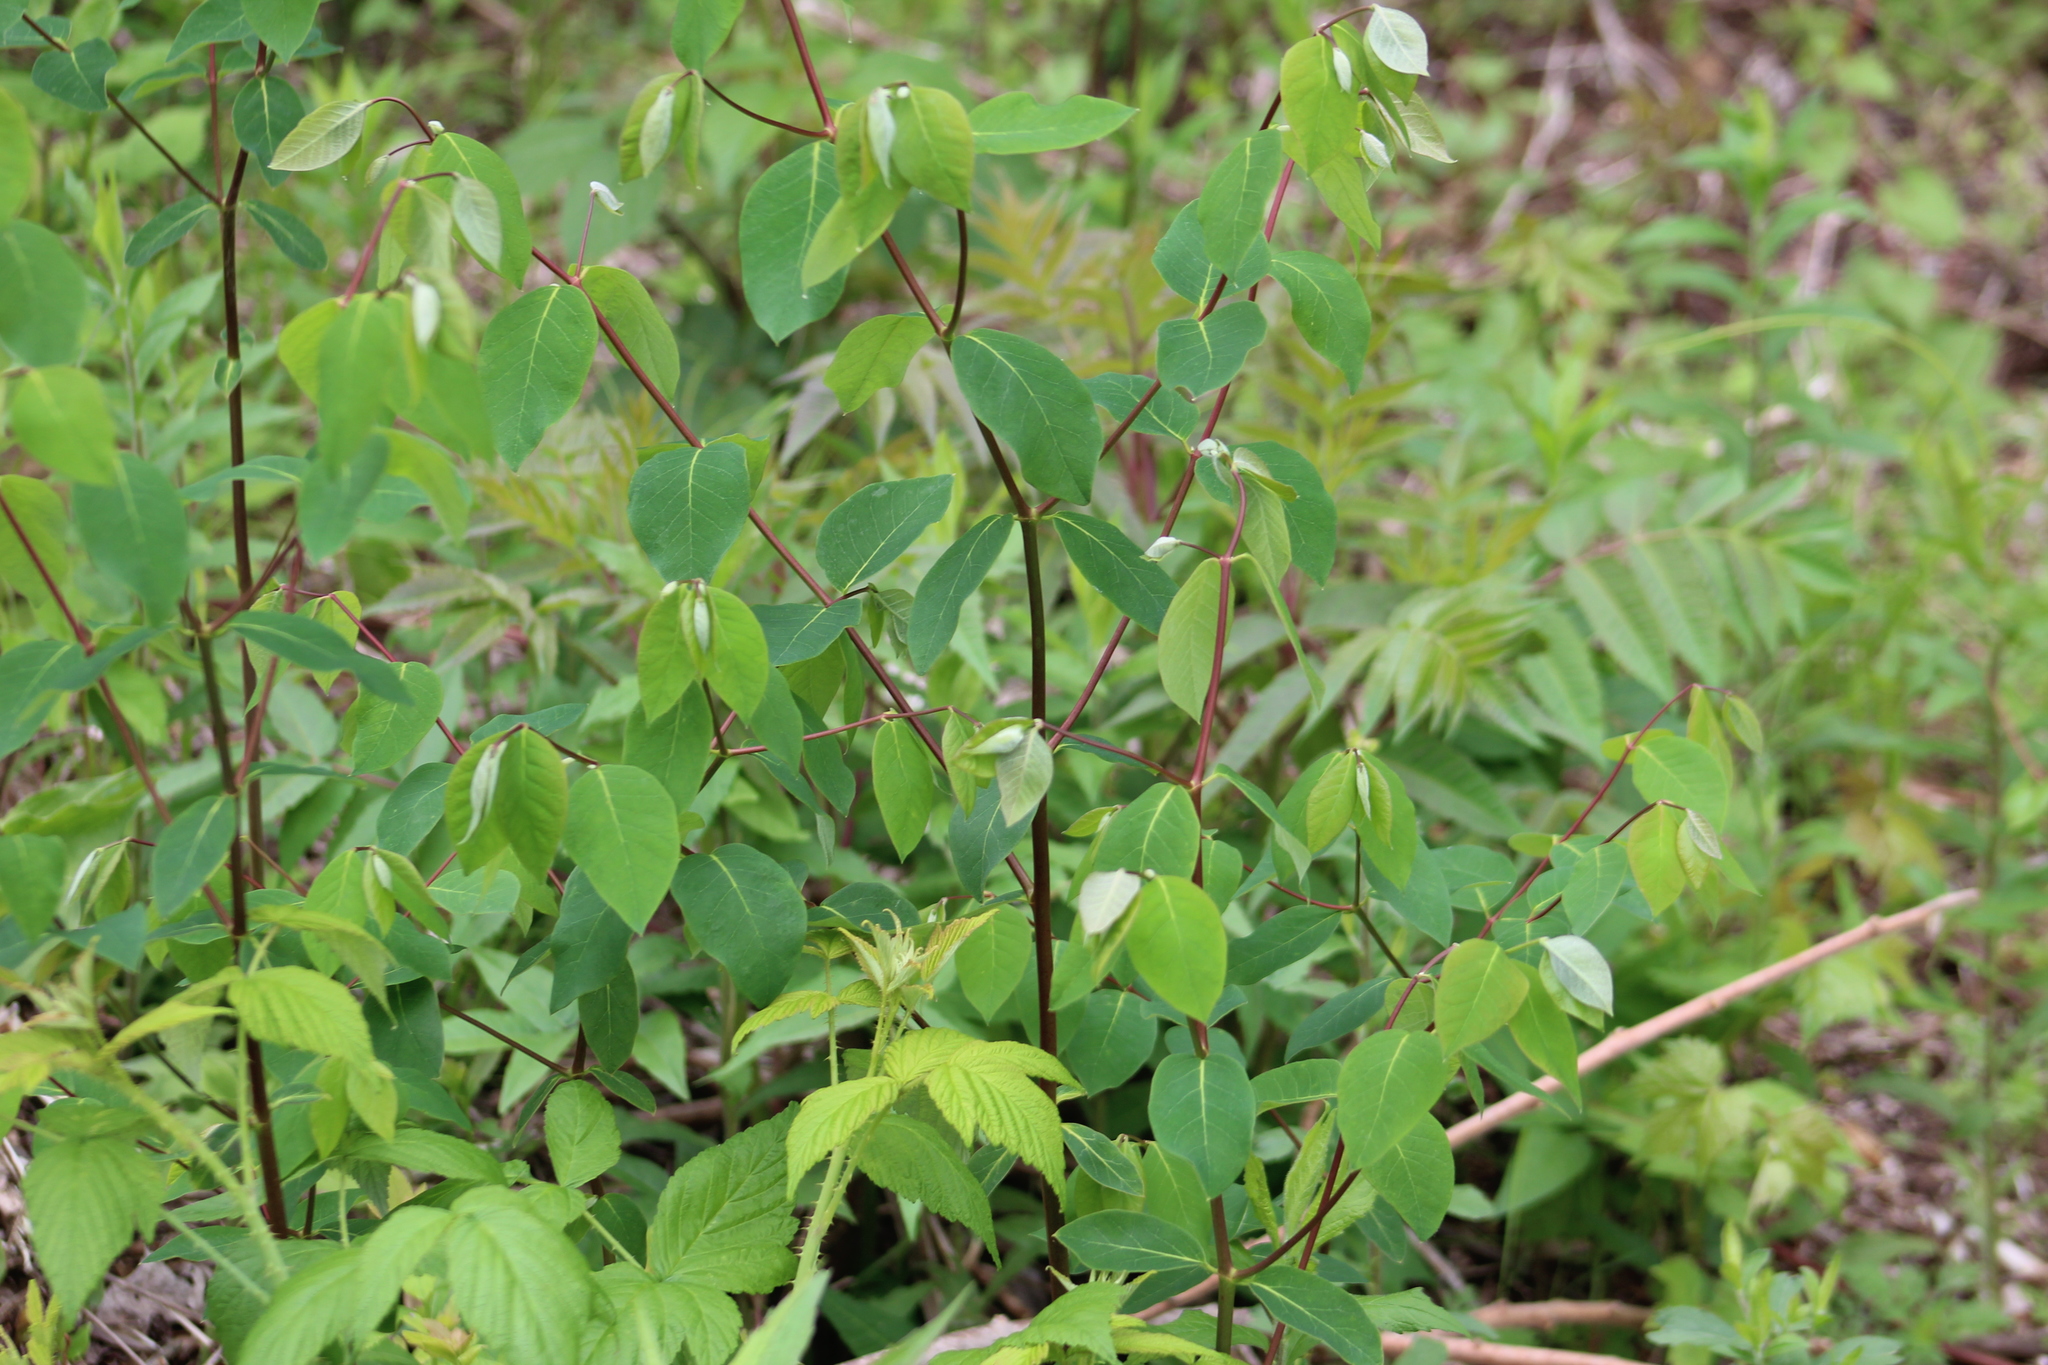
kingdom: Plantae
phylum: Tracheophyta
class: Magnoliopsida
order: Gentianales
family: Apocynaceae
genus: Apocynum
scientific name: Apocynum androsaemifolium
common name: Spreading dogbane
